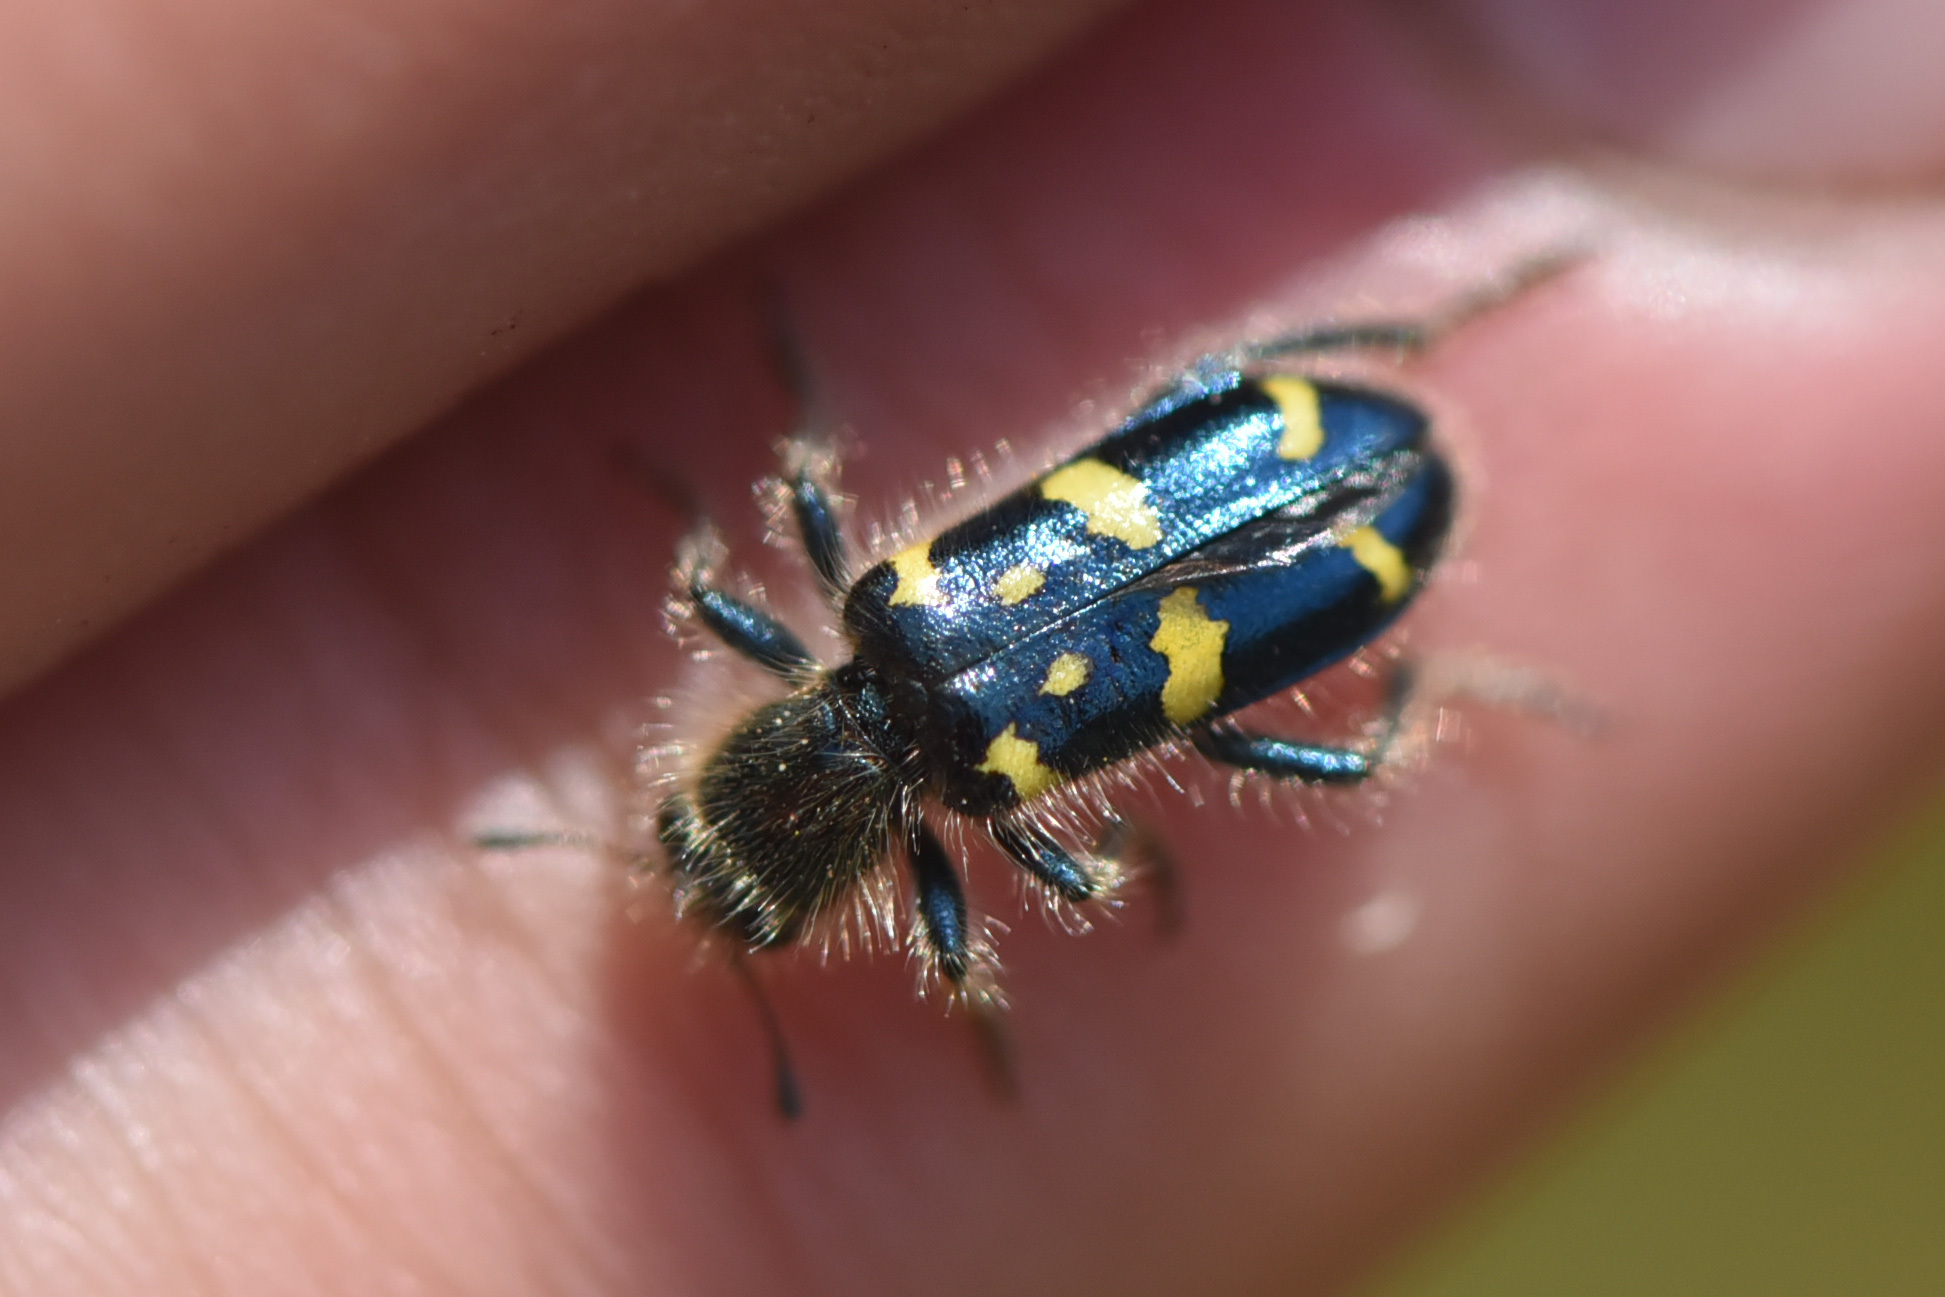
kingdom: Animalia
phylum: Arthropoda
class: Insecta
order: Coleoptera
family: Cleridae
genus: Trichodes
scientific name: Trichodes ornatus
